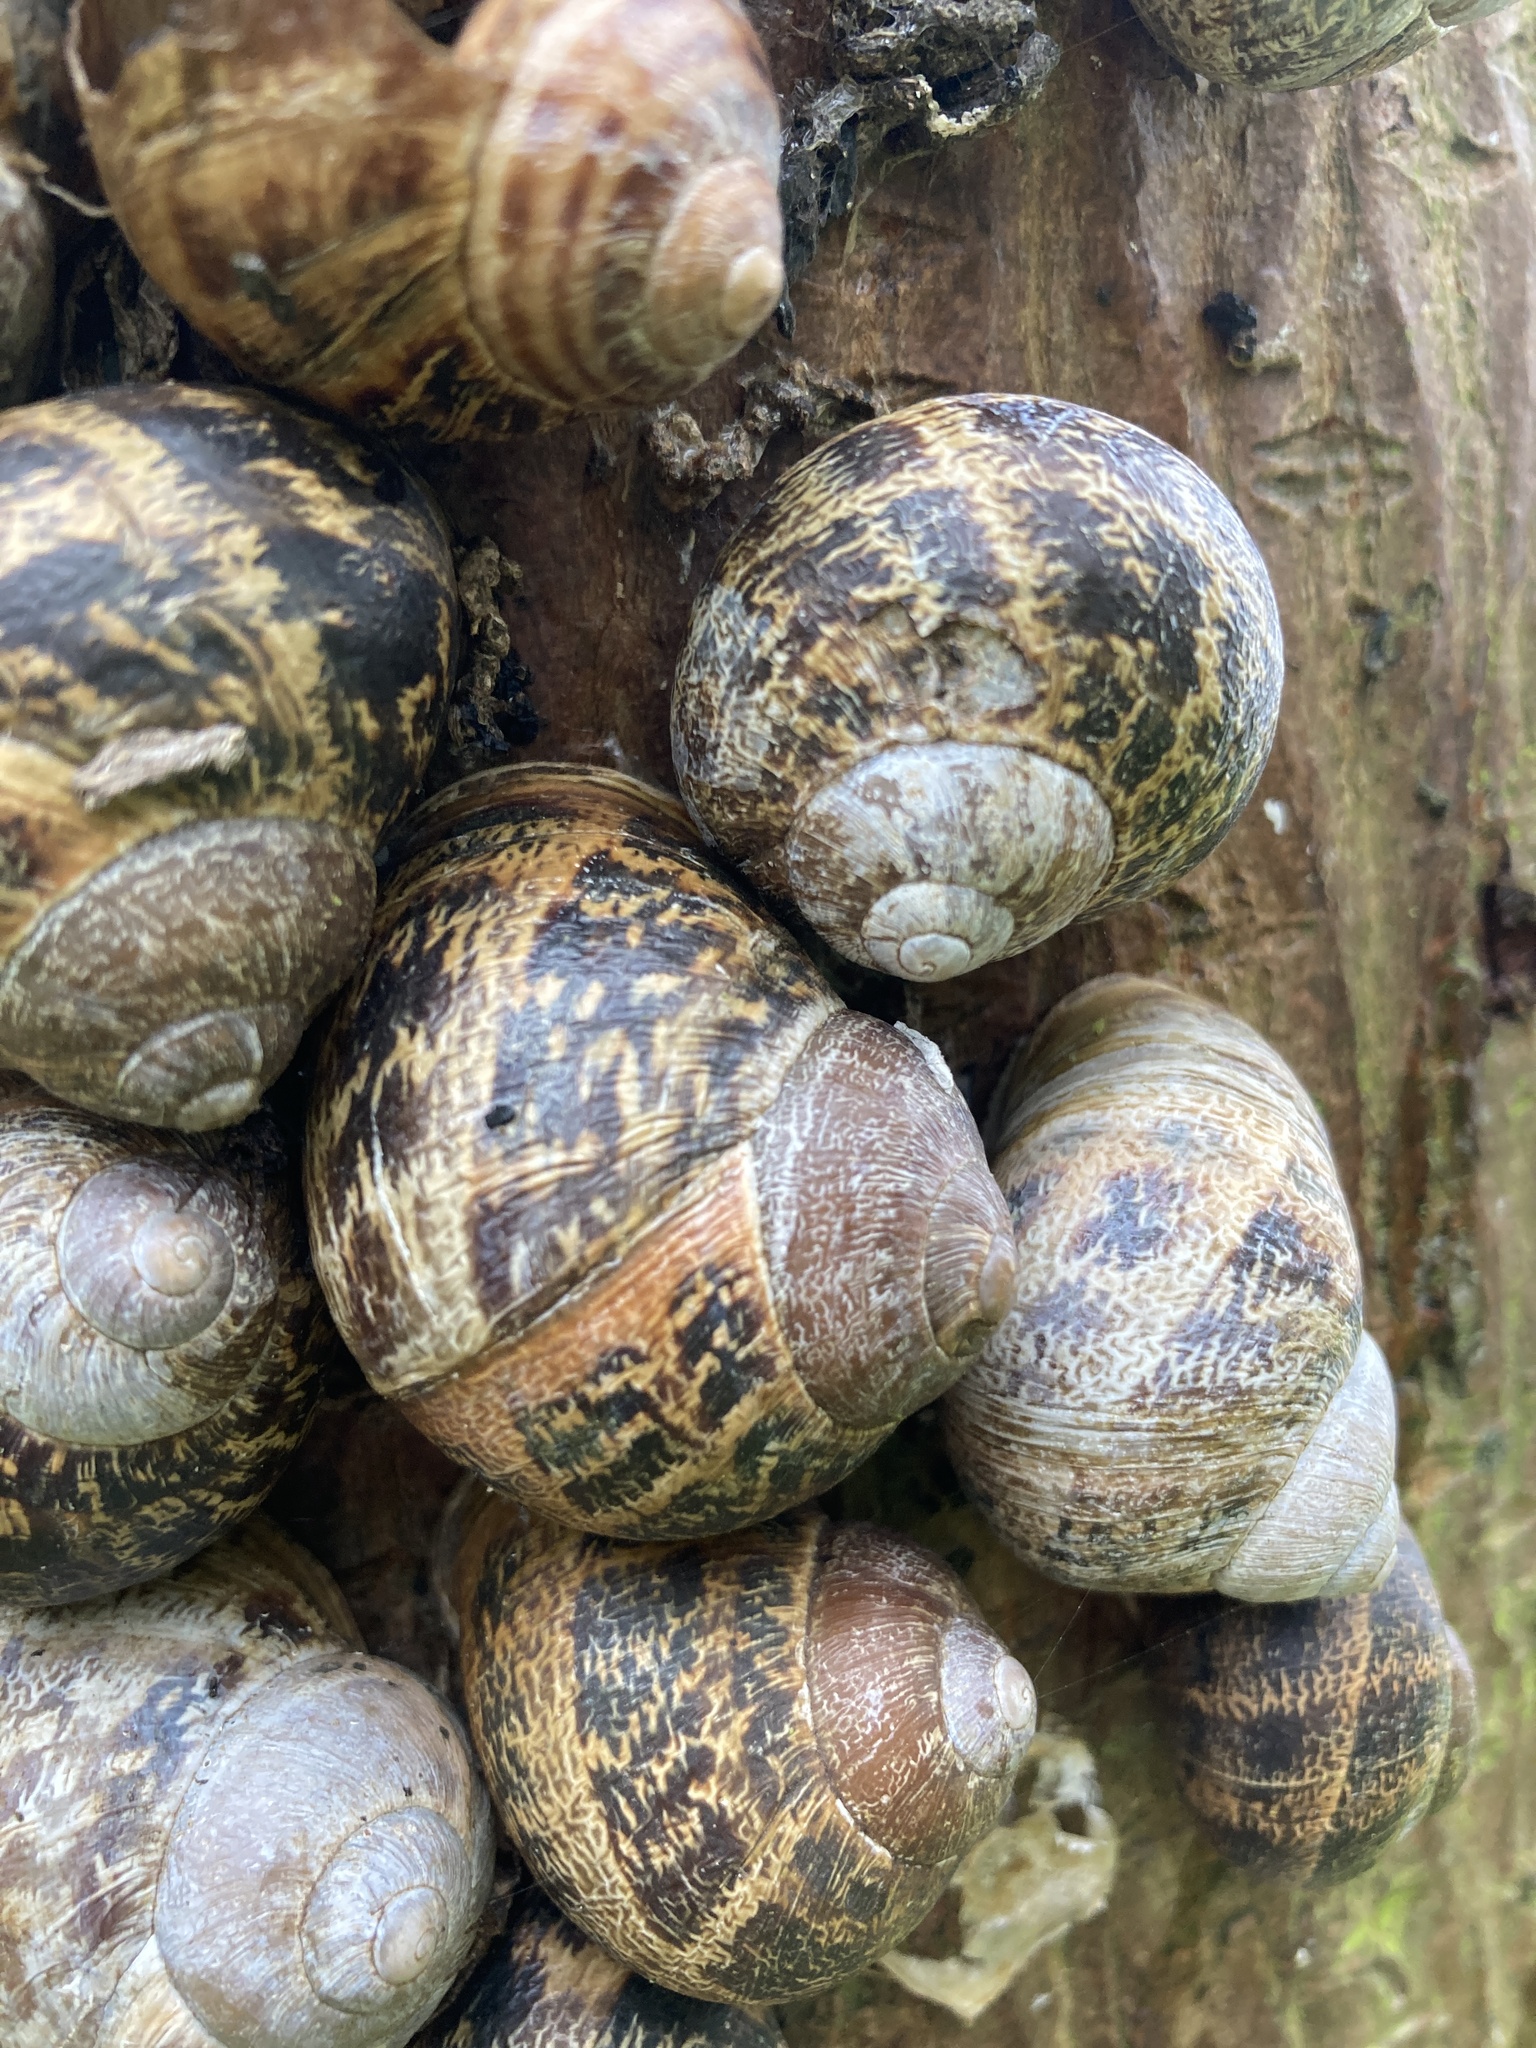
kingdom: Animalia
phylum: Mollusca
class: Gastropoda
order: Stylommatophora
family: Helicidae
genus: Cornu
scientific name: Cornu aspersum
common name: Brown garden snail
